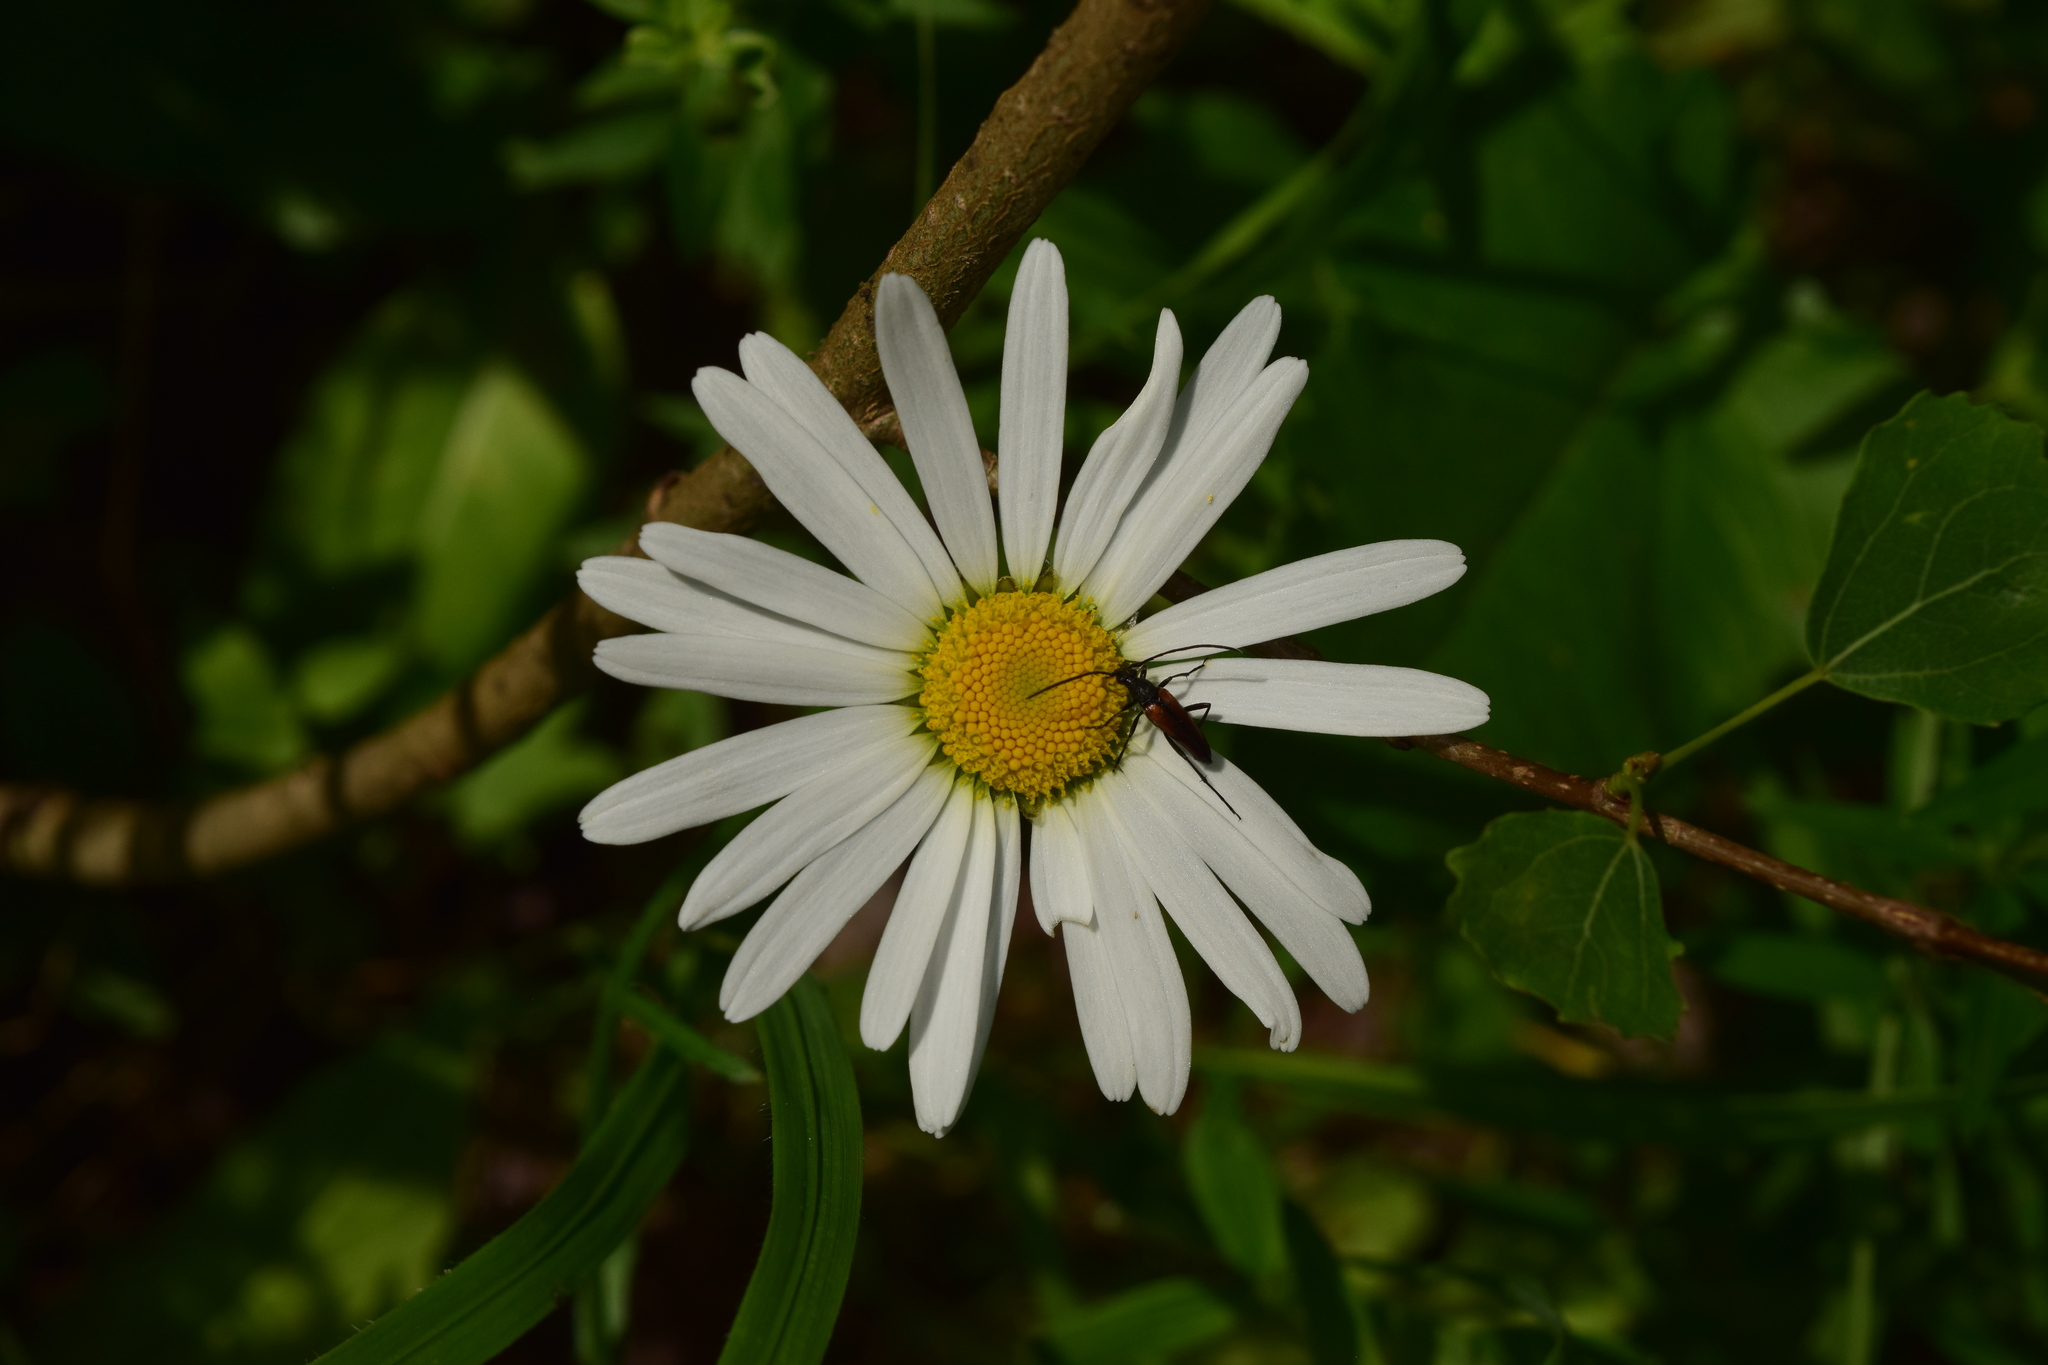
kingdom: Plantae
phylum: Tracheophyta
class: Magnoliopsida
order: Asterales
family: Asteraceae
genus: Leucanthemum
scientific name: Leucanthemum vulgare
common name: Oxeye daisy
